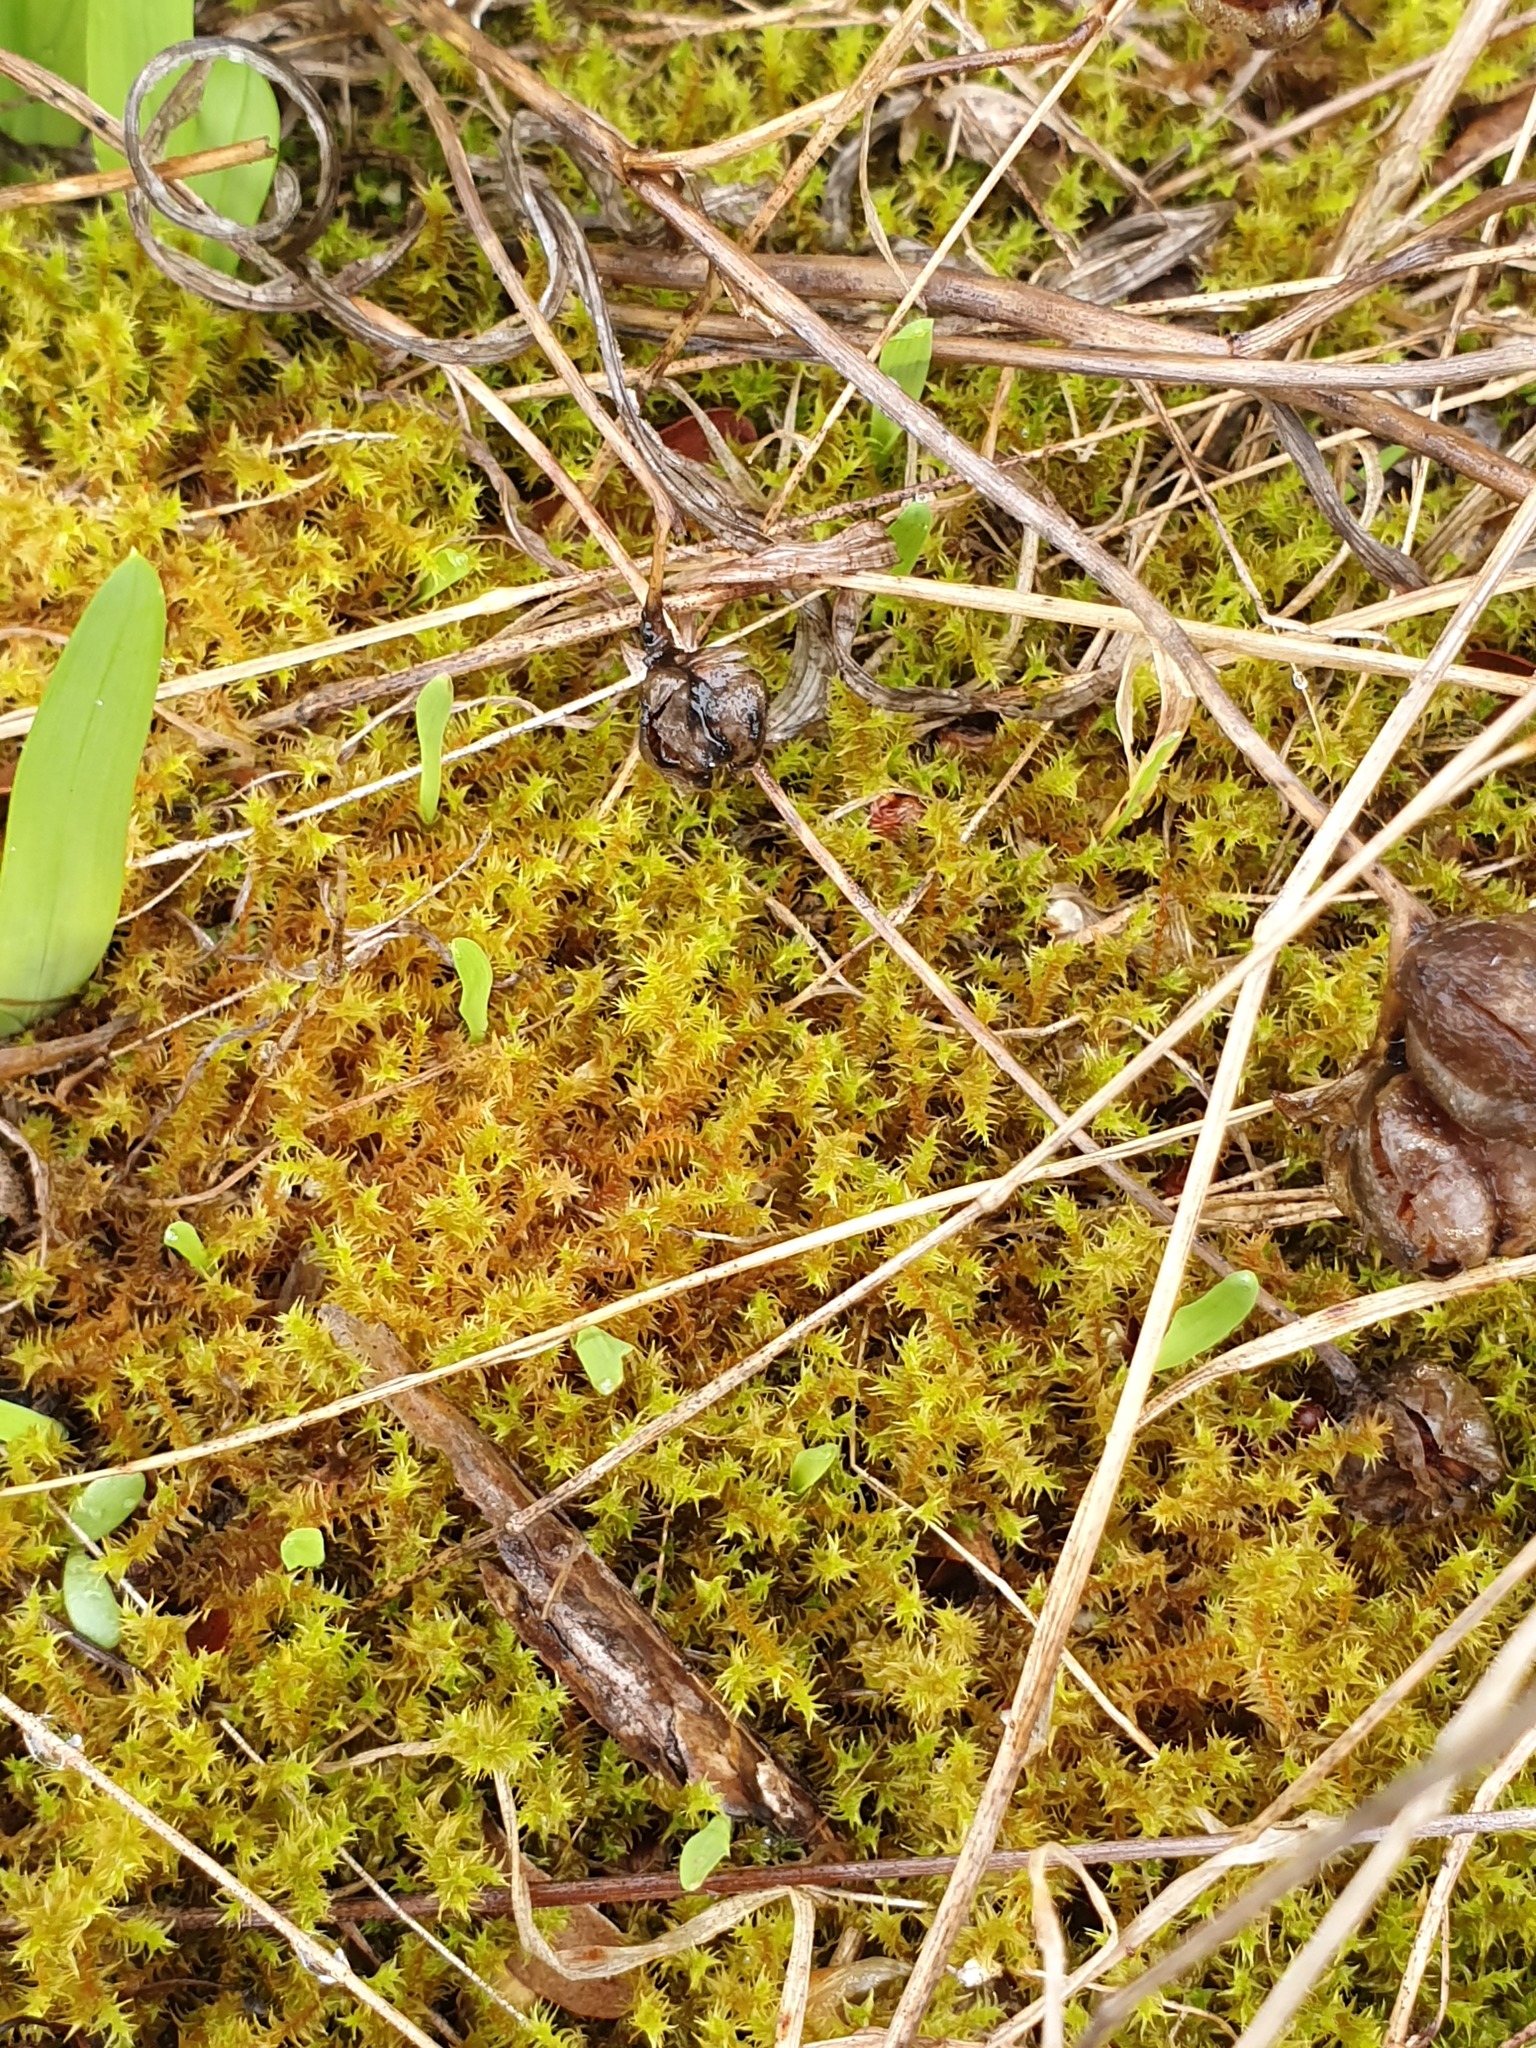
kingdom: Plantae
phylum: Bryophyta
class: Bryopsida
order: Pottiales
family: Pottiaceae
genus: Triquetrella
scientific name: Triquetrella papillata
